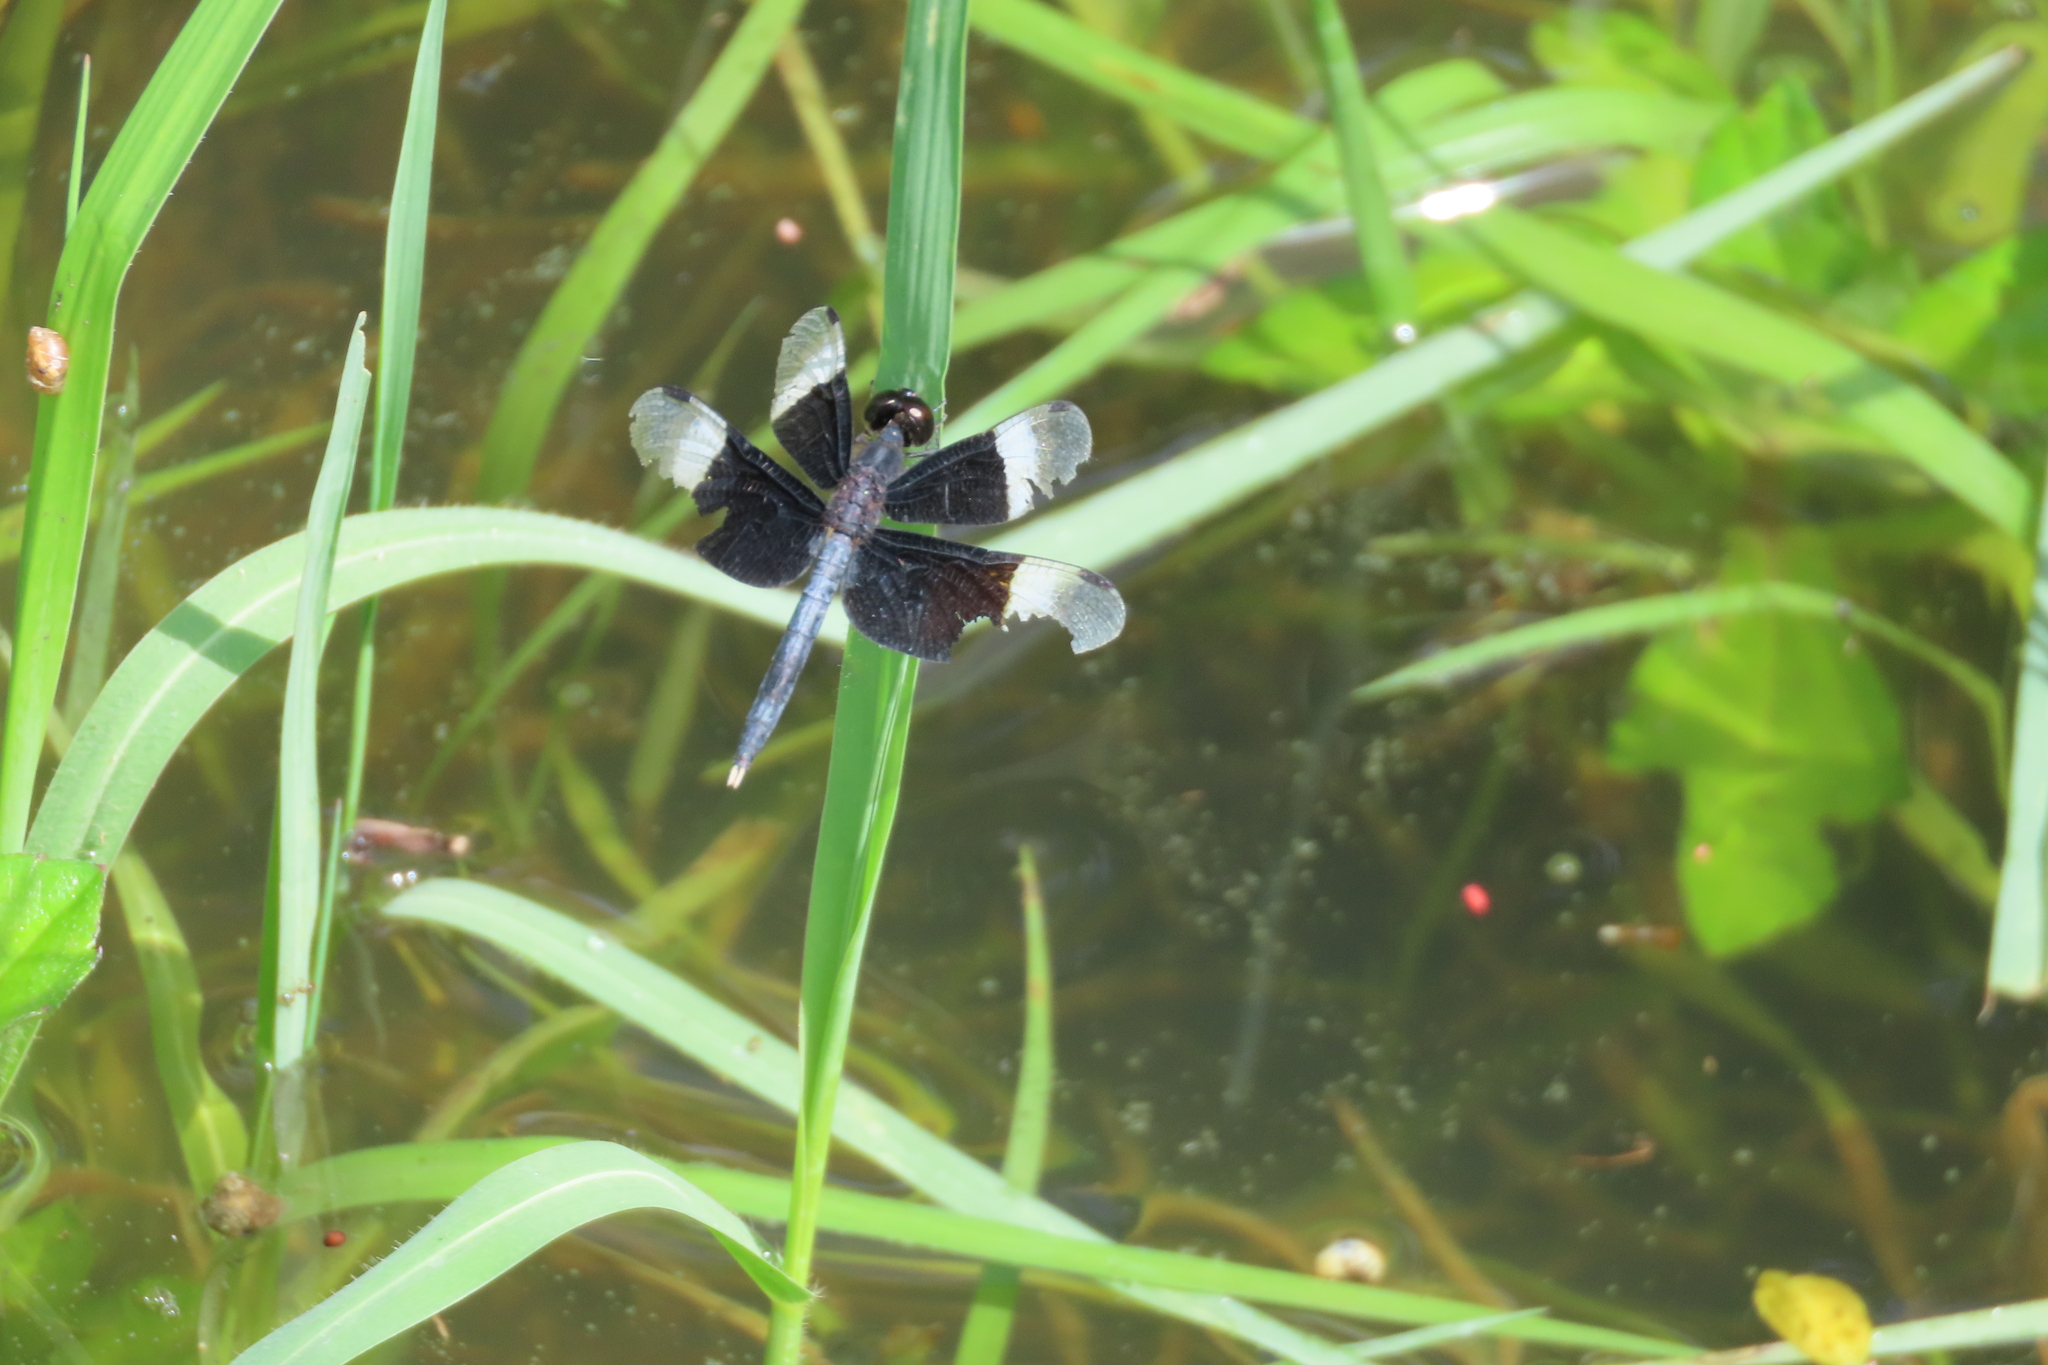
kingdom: Animalia
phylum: Arthropoda
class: Insecta
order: Odonata
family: Libellulidae
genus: Neurothemis
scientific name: Neurothemis tullia
